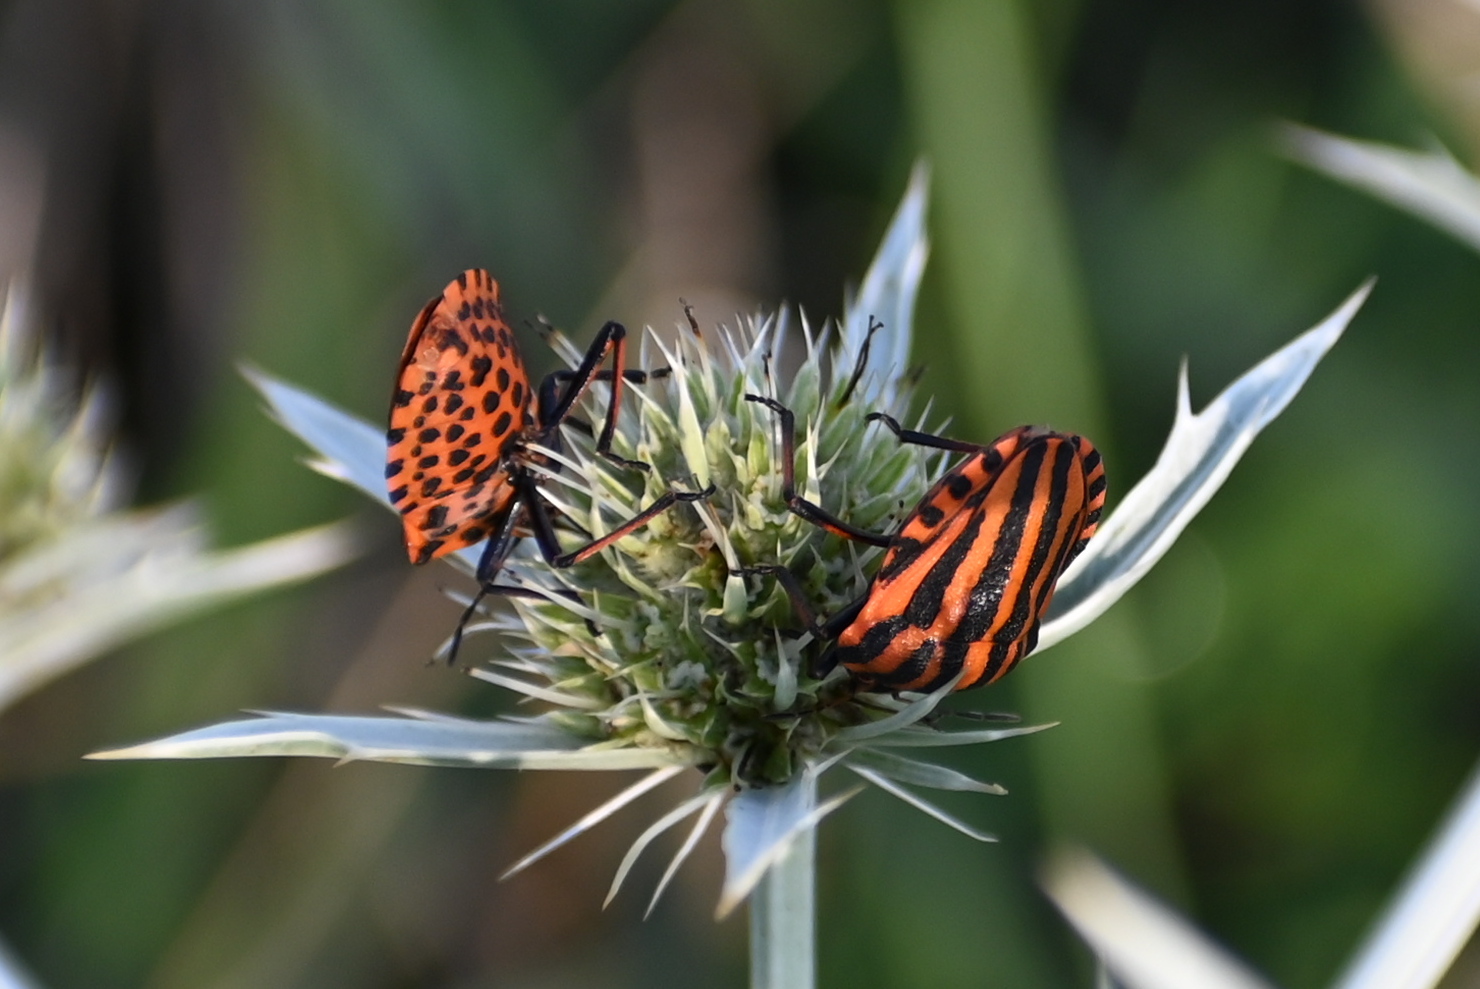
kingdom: Animalia
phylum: Arthropoda
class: Insecta
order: Hemiptera
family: Pentatomidae
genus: Graphosoma
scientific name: Graphosoma italicum
